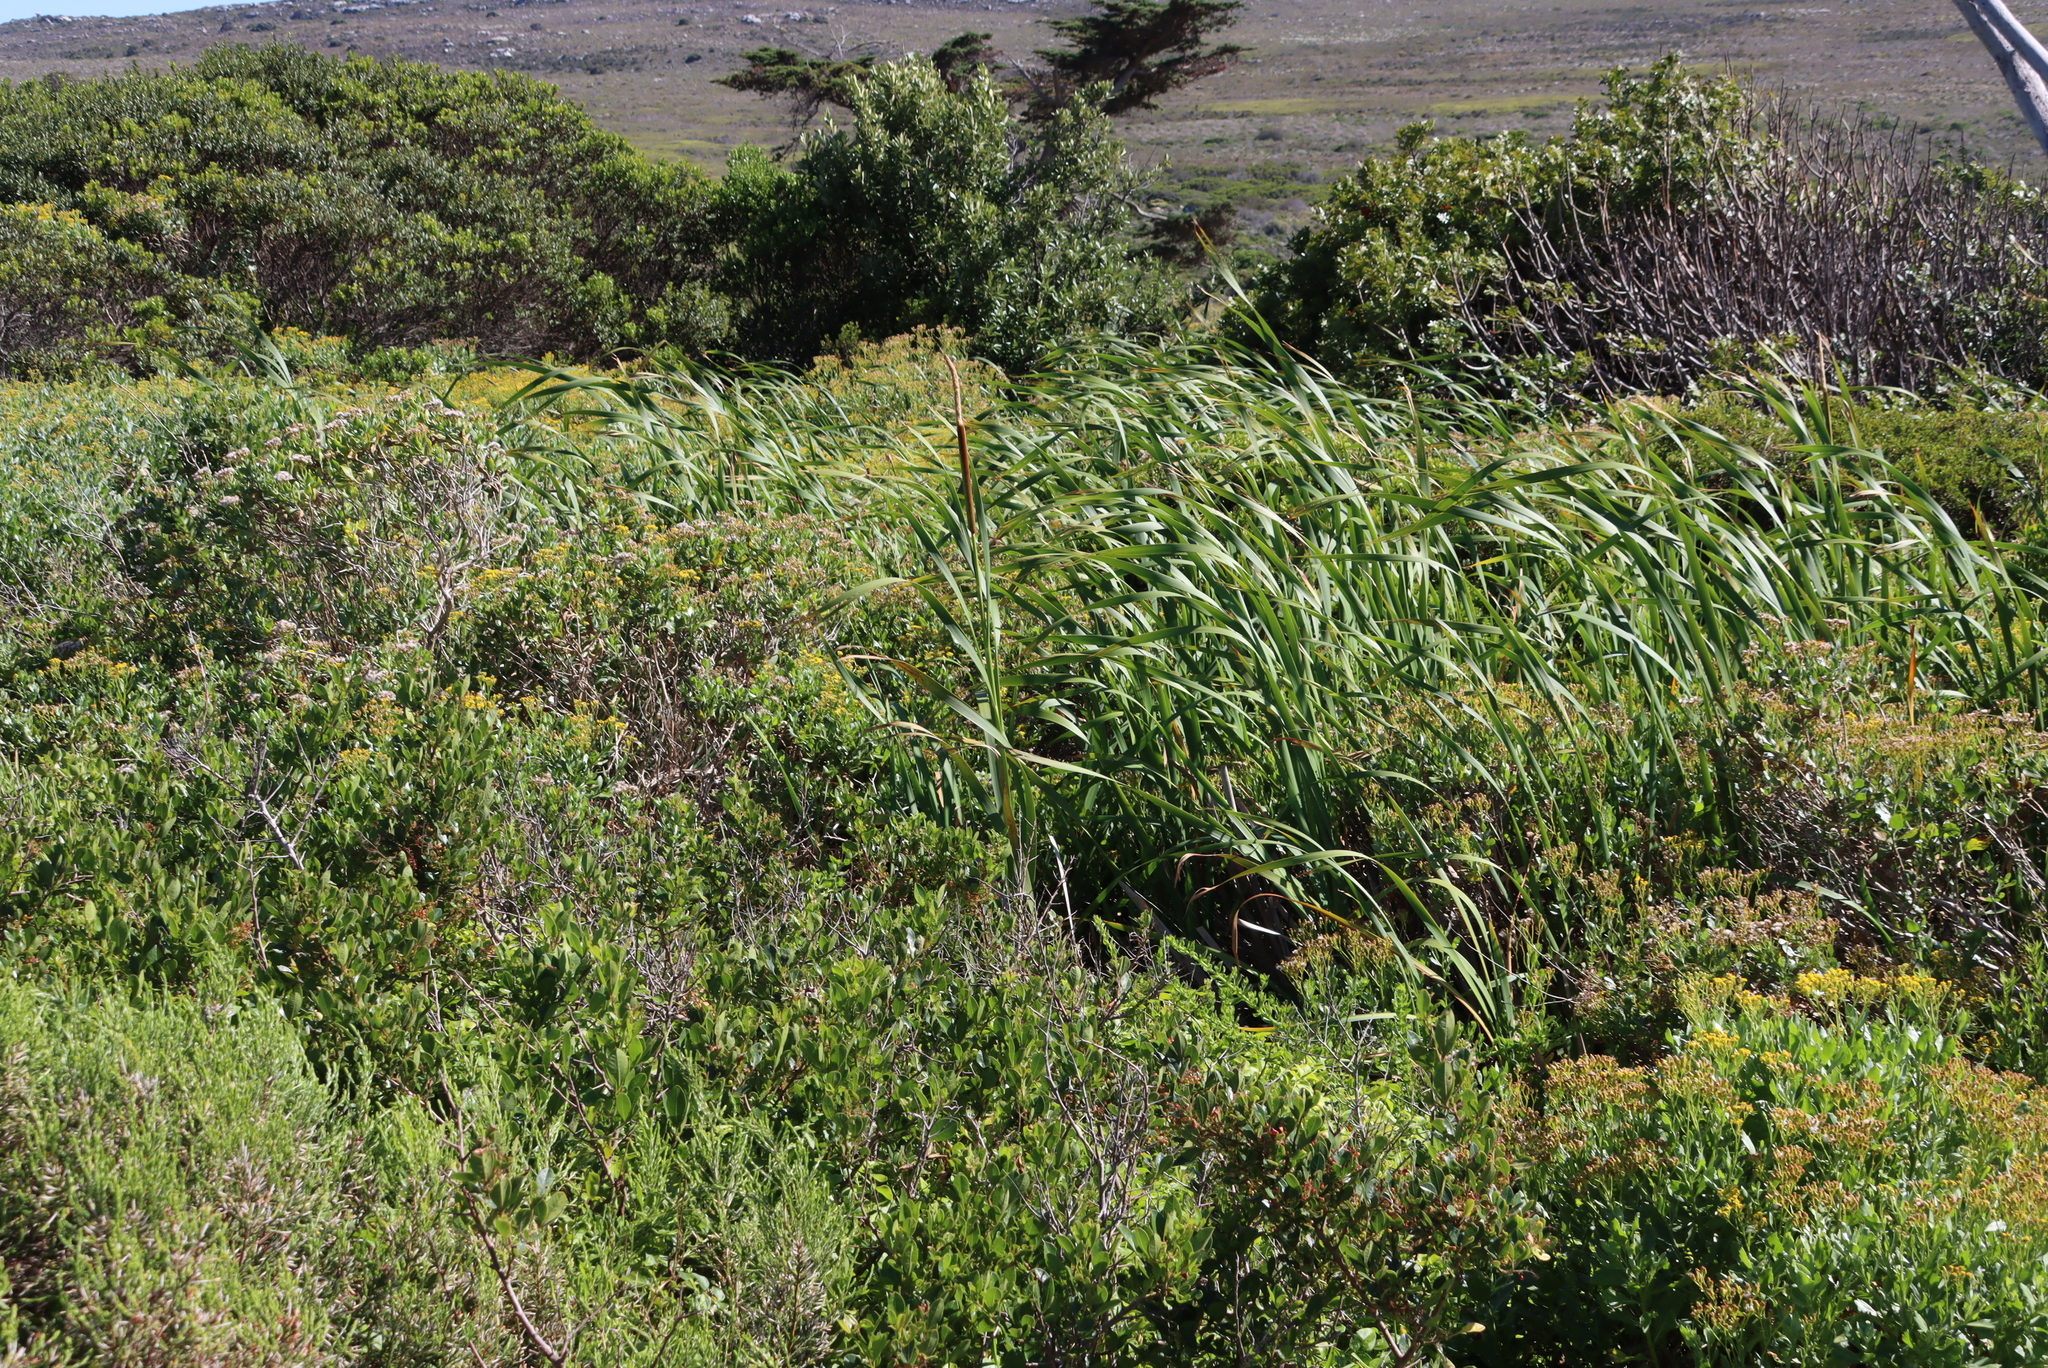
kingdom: Plantae
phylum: Tracheophyta
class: Liliopsida
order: Poales
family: Typhaceae
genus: Typha
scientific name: Typha capensis
